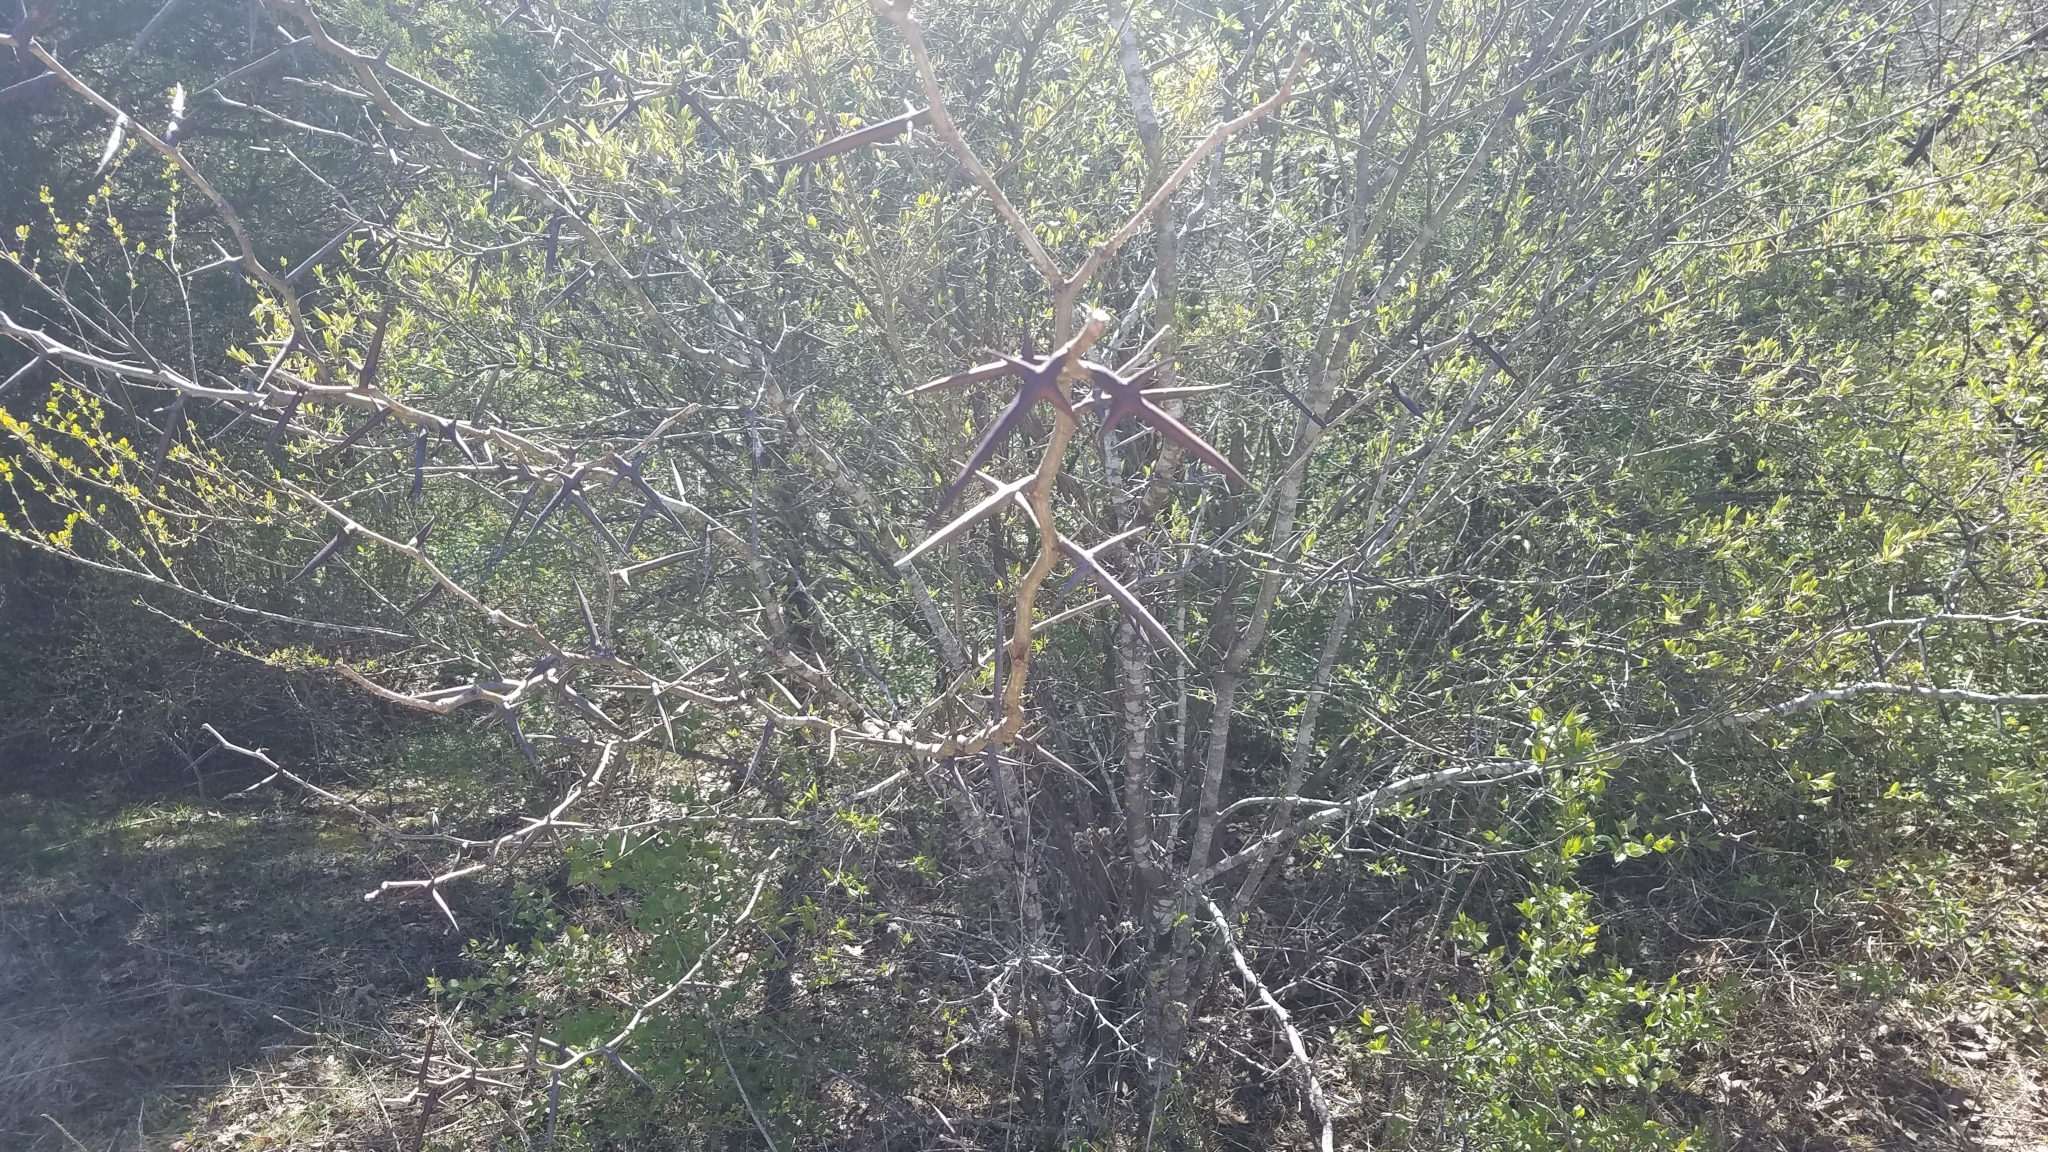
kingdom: Plantae
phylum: Tracheophyta
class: Magnoliopsida
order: Fabales
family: Fabaceae
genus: Gleditsia
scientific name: Gleditsia triacanthos
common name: Common honeylocust
